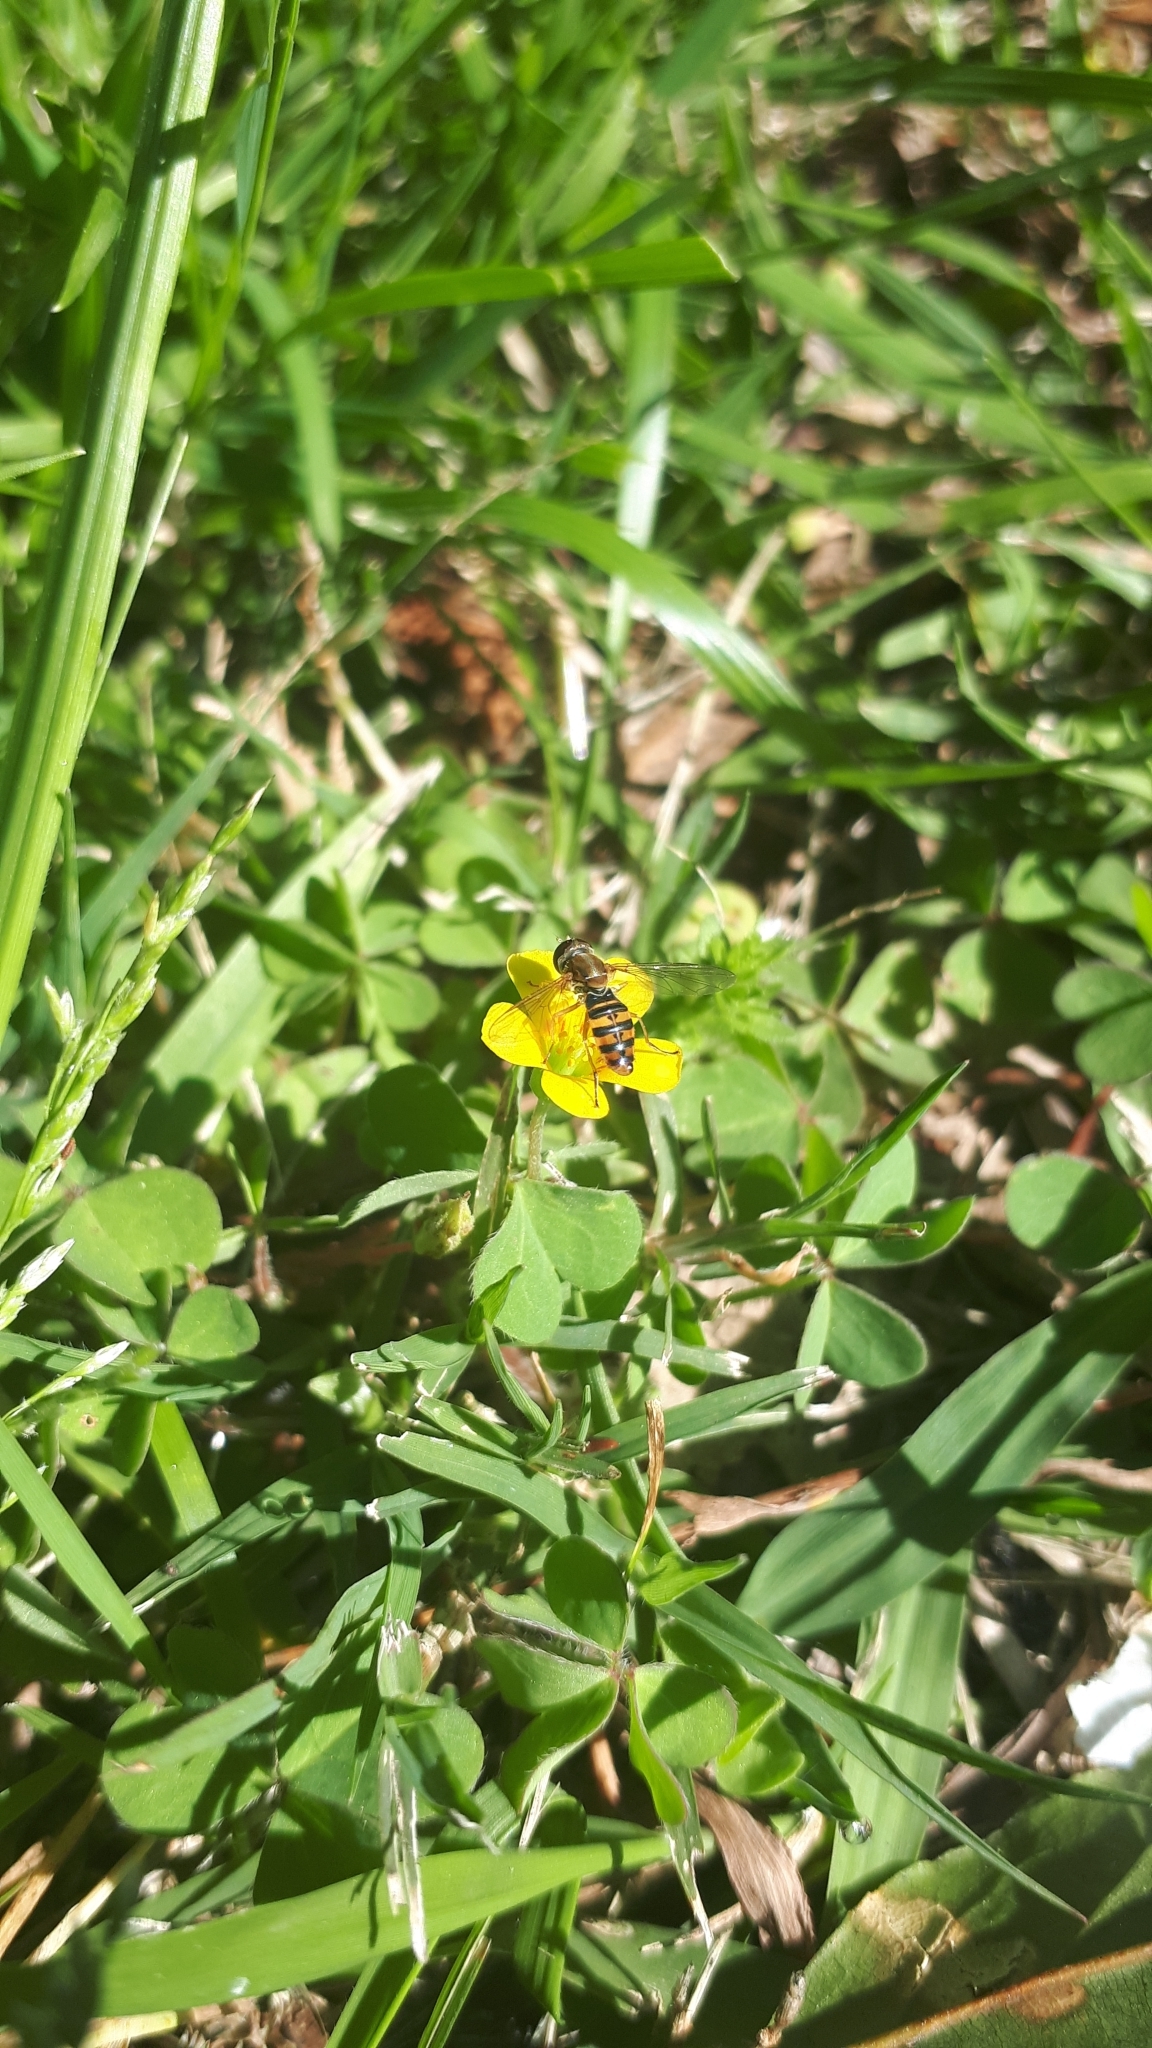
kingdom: Animalia
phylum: Arthropoda
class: Insecta
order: Diptera
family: Syrphidae
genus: Toxomerus
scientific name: Toxomerus
